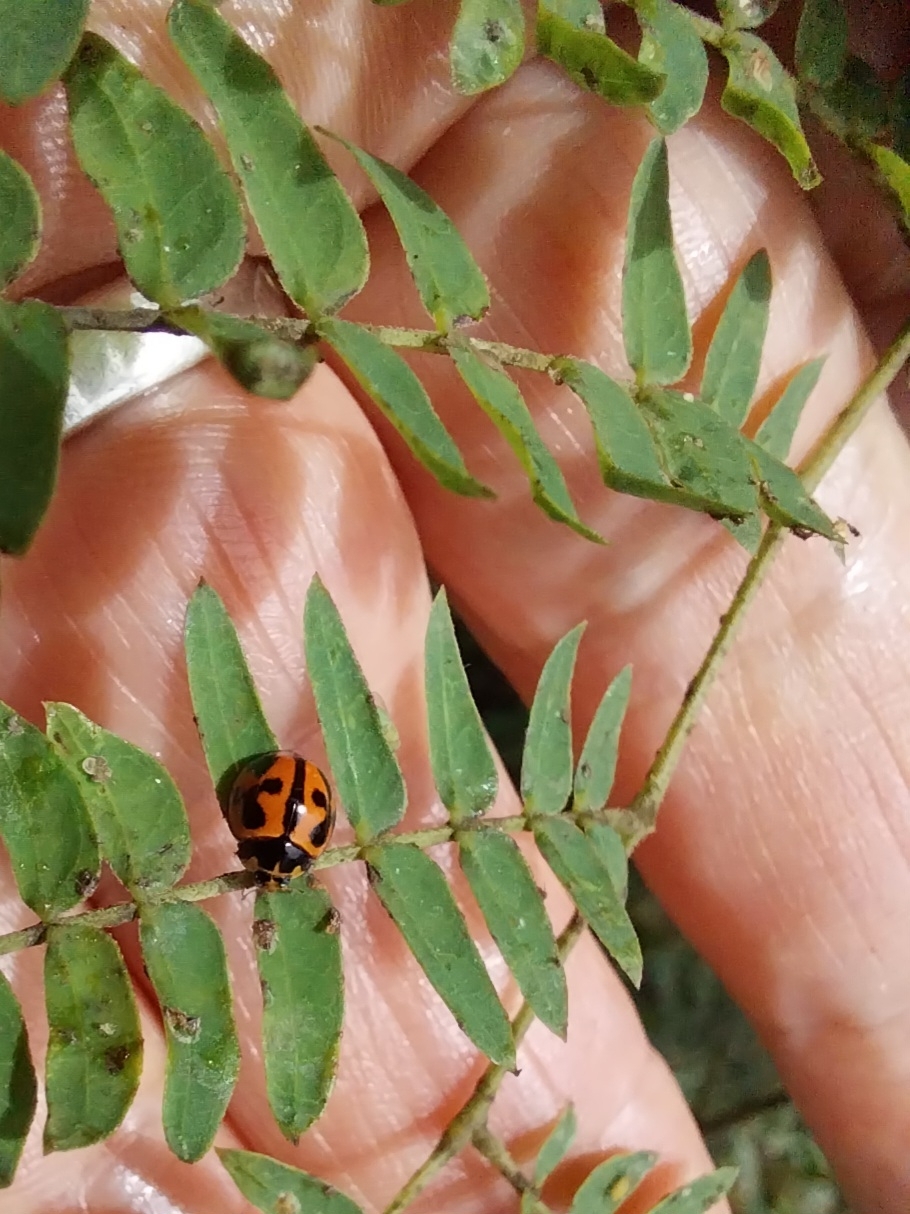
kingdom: Animalia
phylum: Arthropoda
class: Insecta
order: Coleoptera
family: Coccinellidae
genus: Coelophora
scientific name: Coelophora inaequalis
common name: Common australian lady beetle
